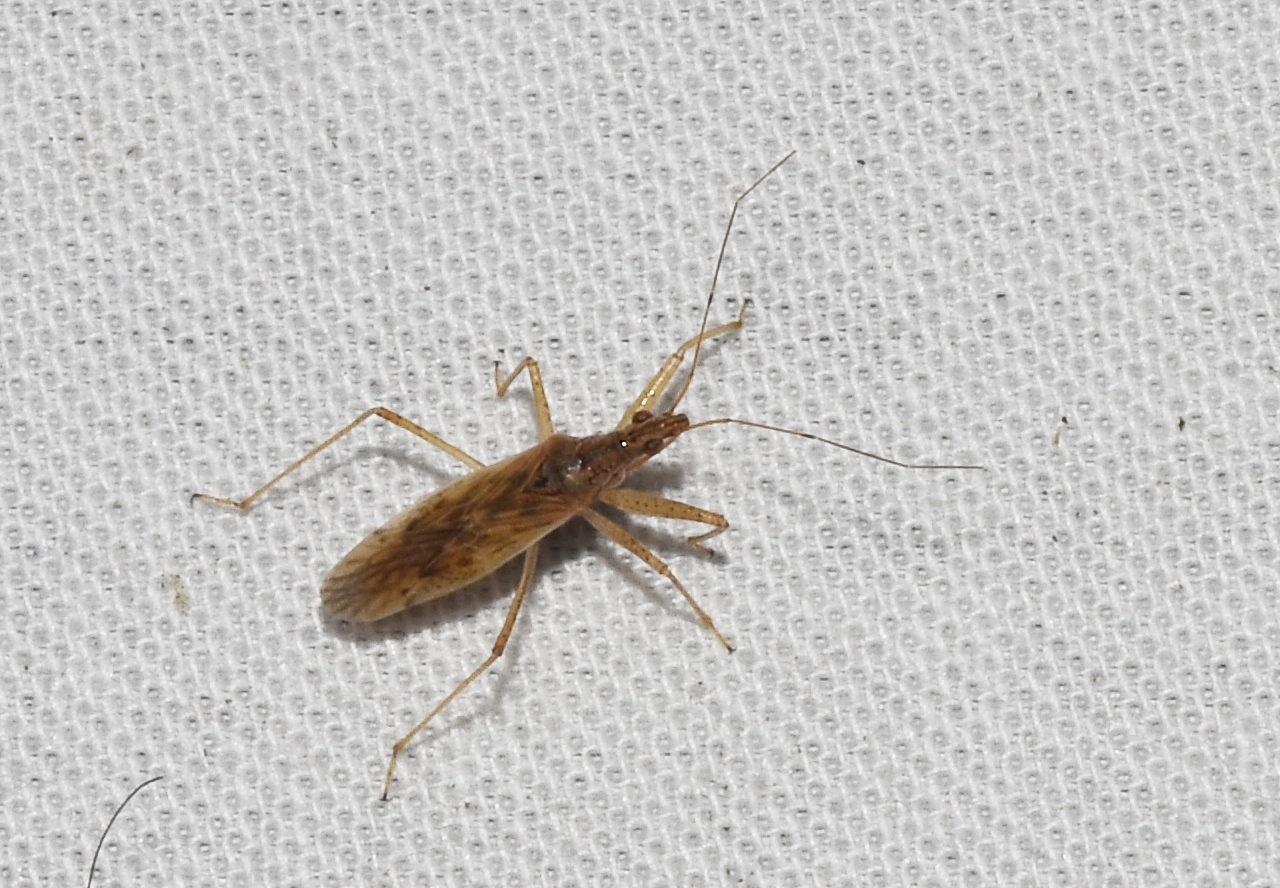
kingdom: Animalia
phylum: Arthropoda
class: Insecta
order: Hemiptera
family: Nabidae
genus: Nabis
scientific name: Nabis roseipennis
